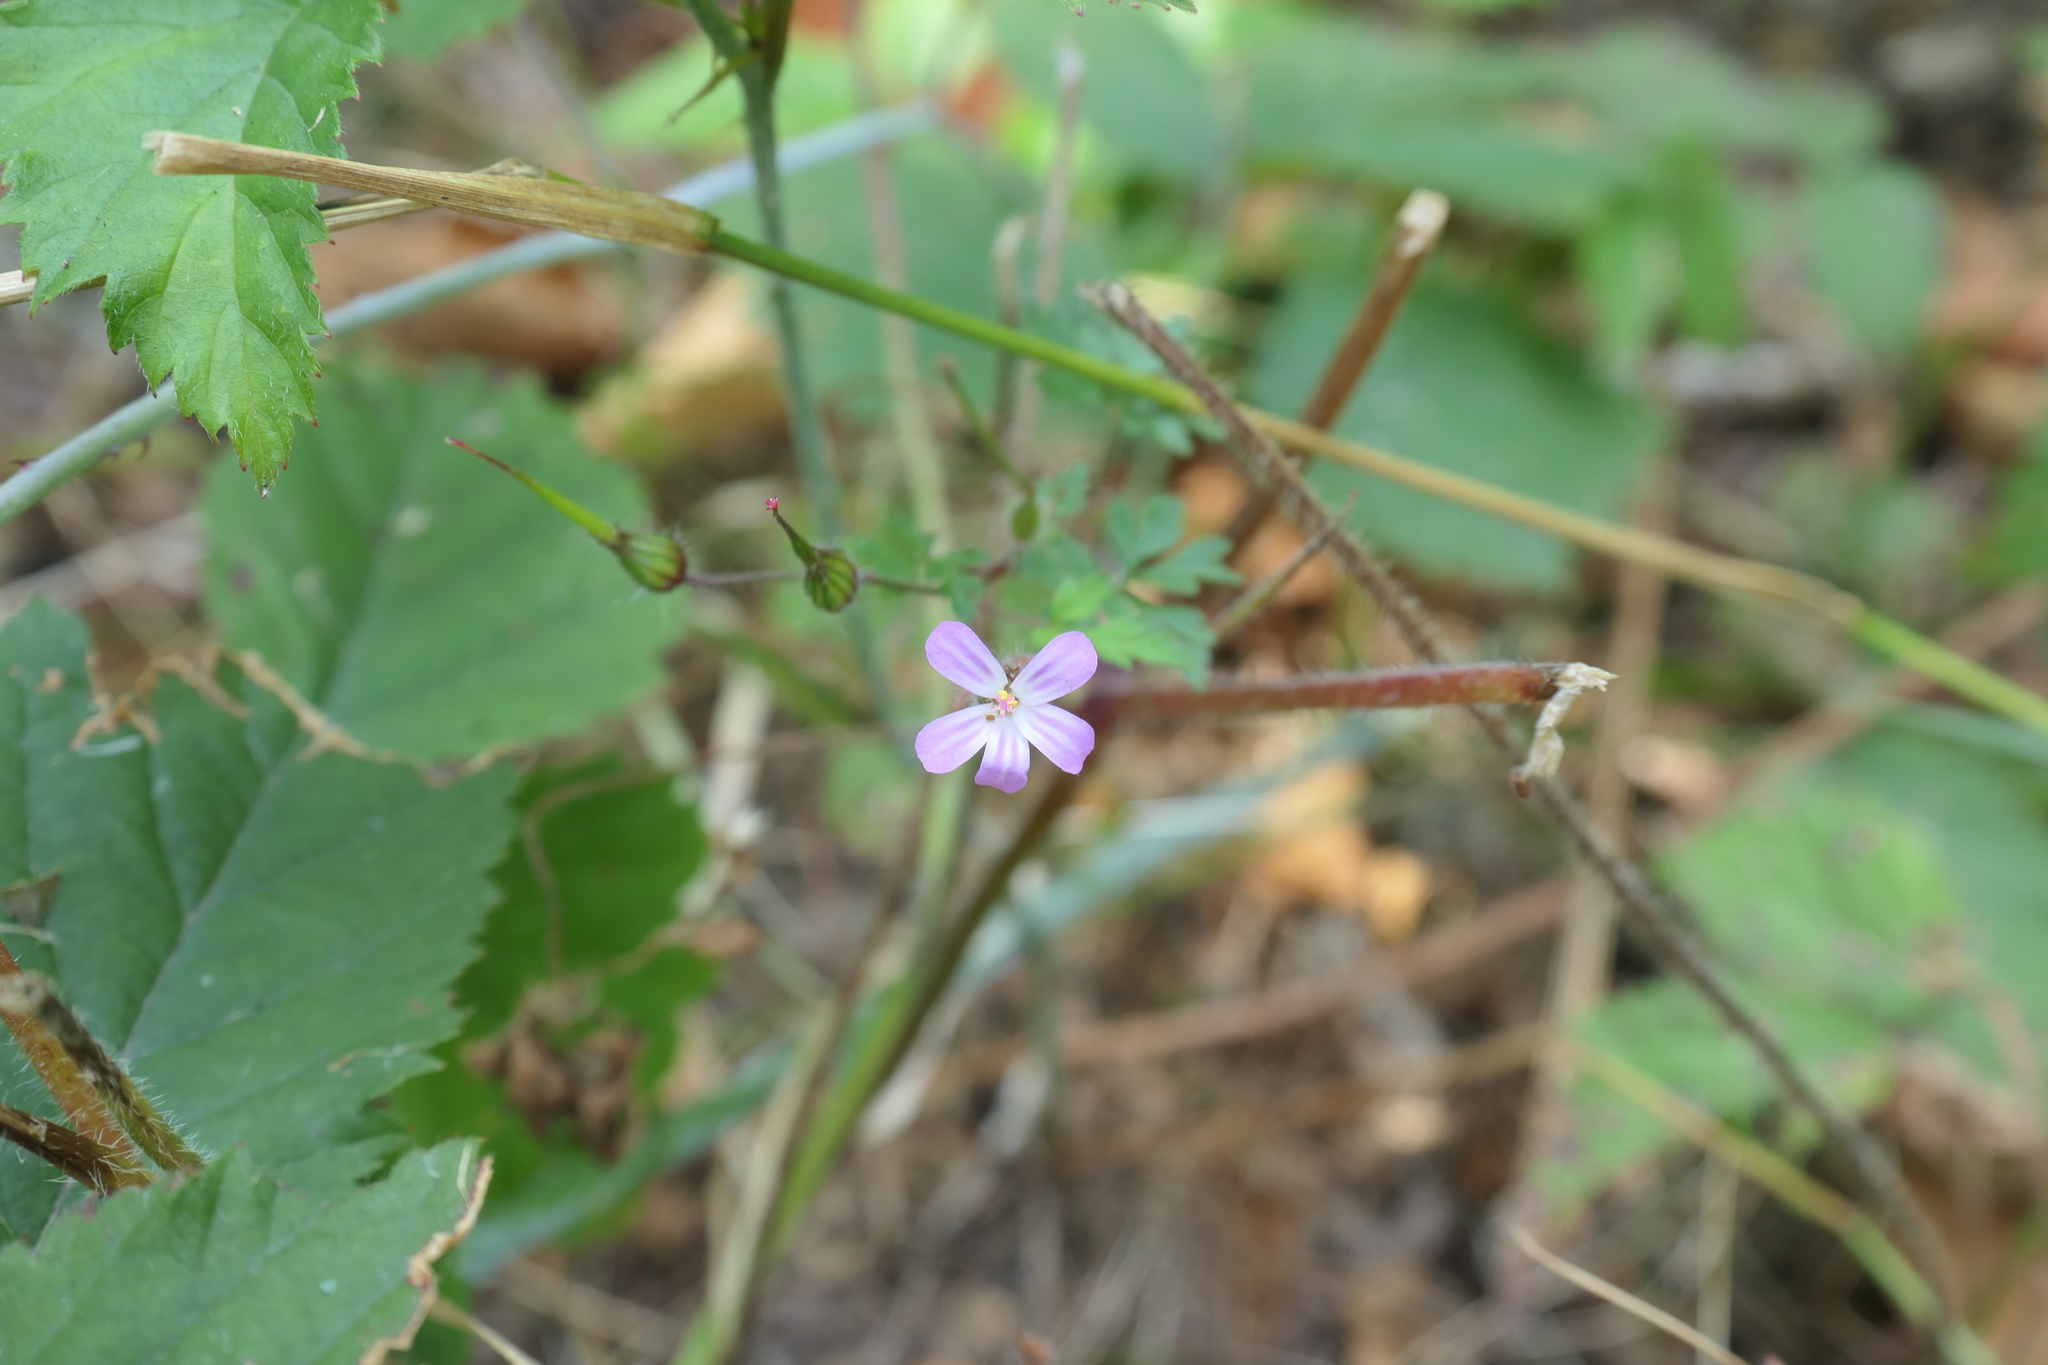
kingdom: Plantae
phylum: Tracheophyta
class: Magnoliopsida
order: Geraniales
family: Geraniaceae
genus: Geranium
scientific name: Geranium robertianum
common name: Herb-robert
